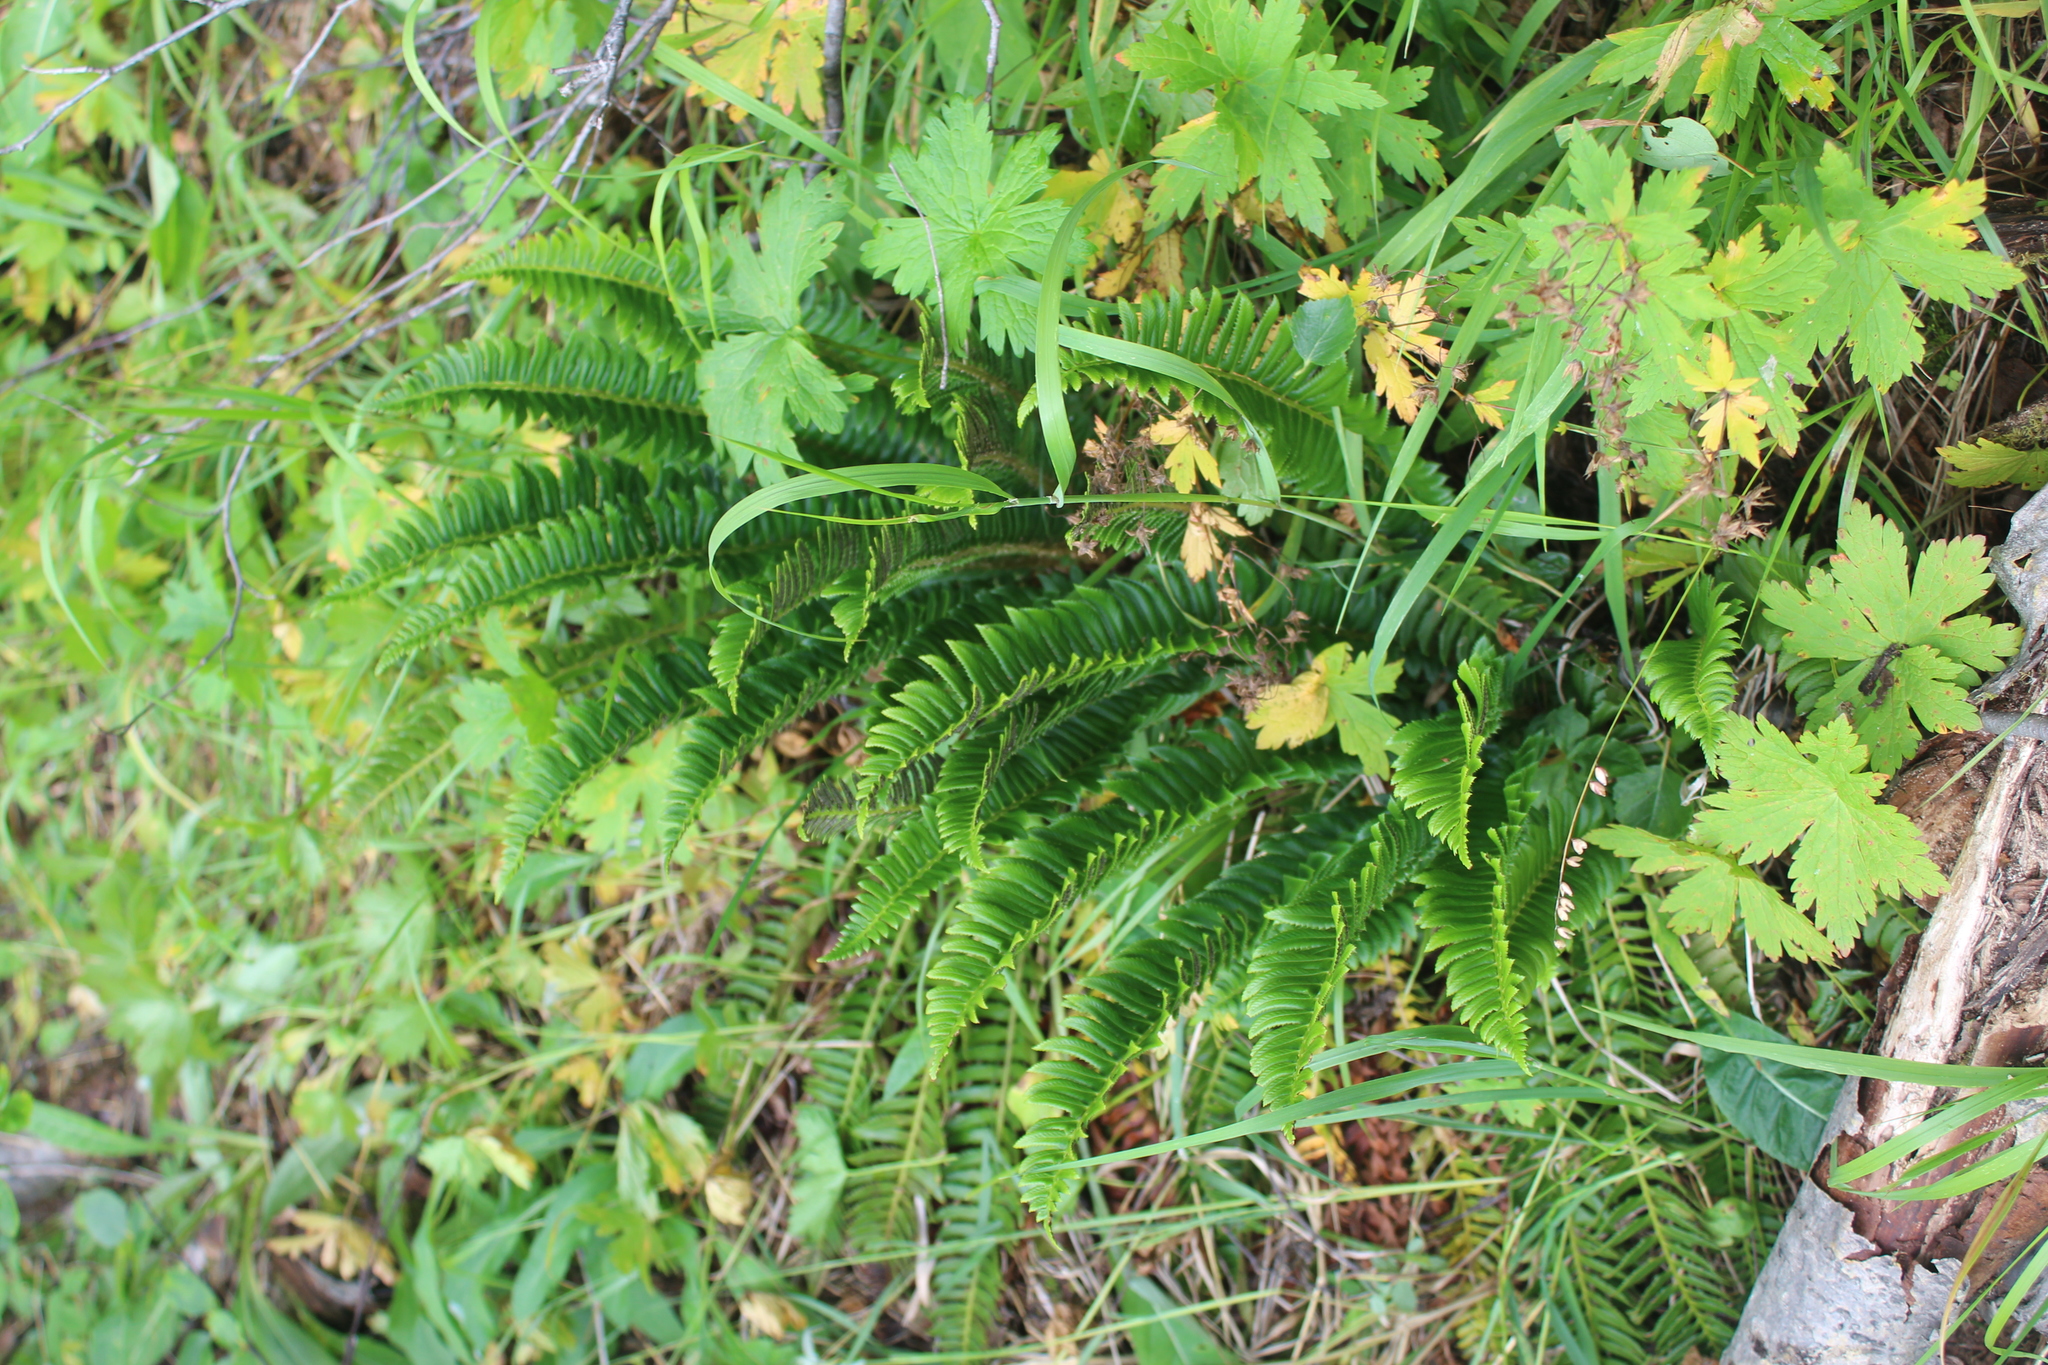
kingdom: Plantae
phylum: Tracheophyta
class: Polypodiopsida
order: Polypodiales
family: Dryopteridaceae
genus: Polystichum
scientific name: Polystichum lonchitis
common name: Holly fern
